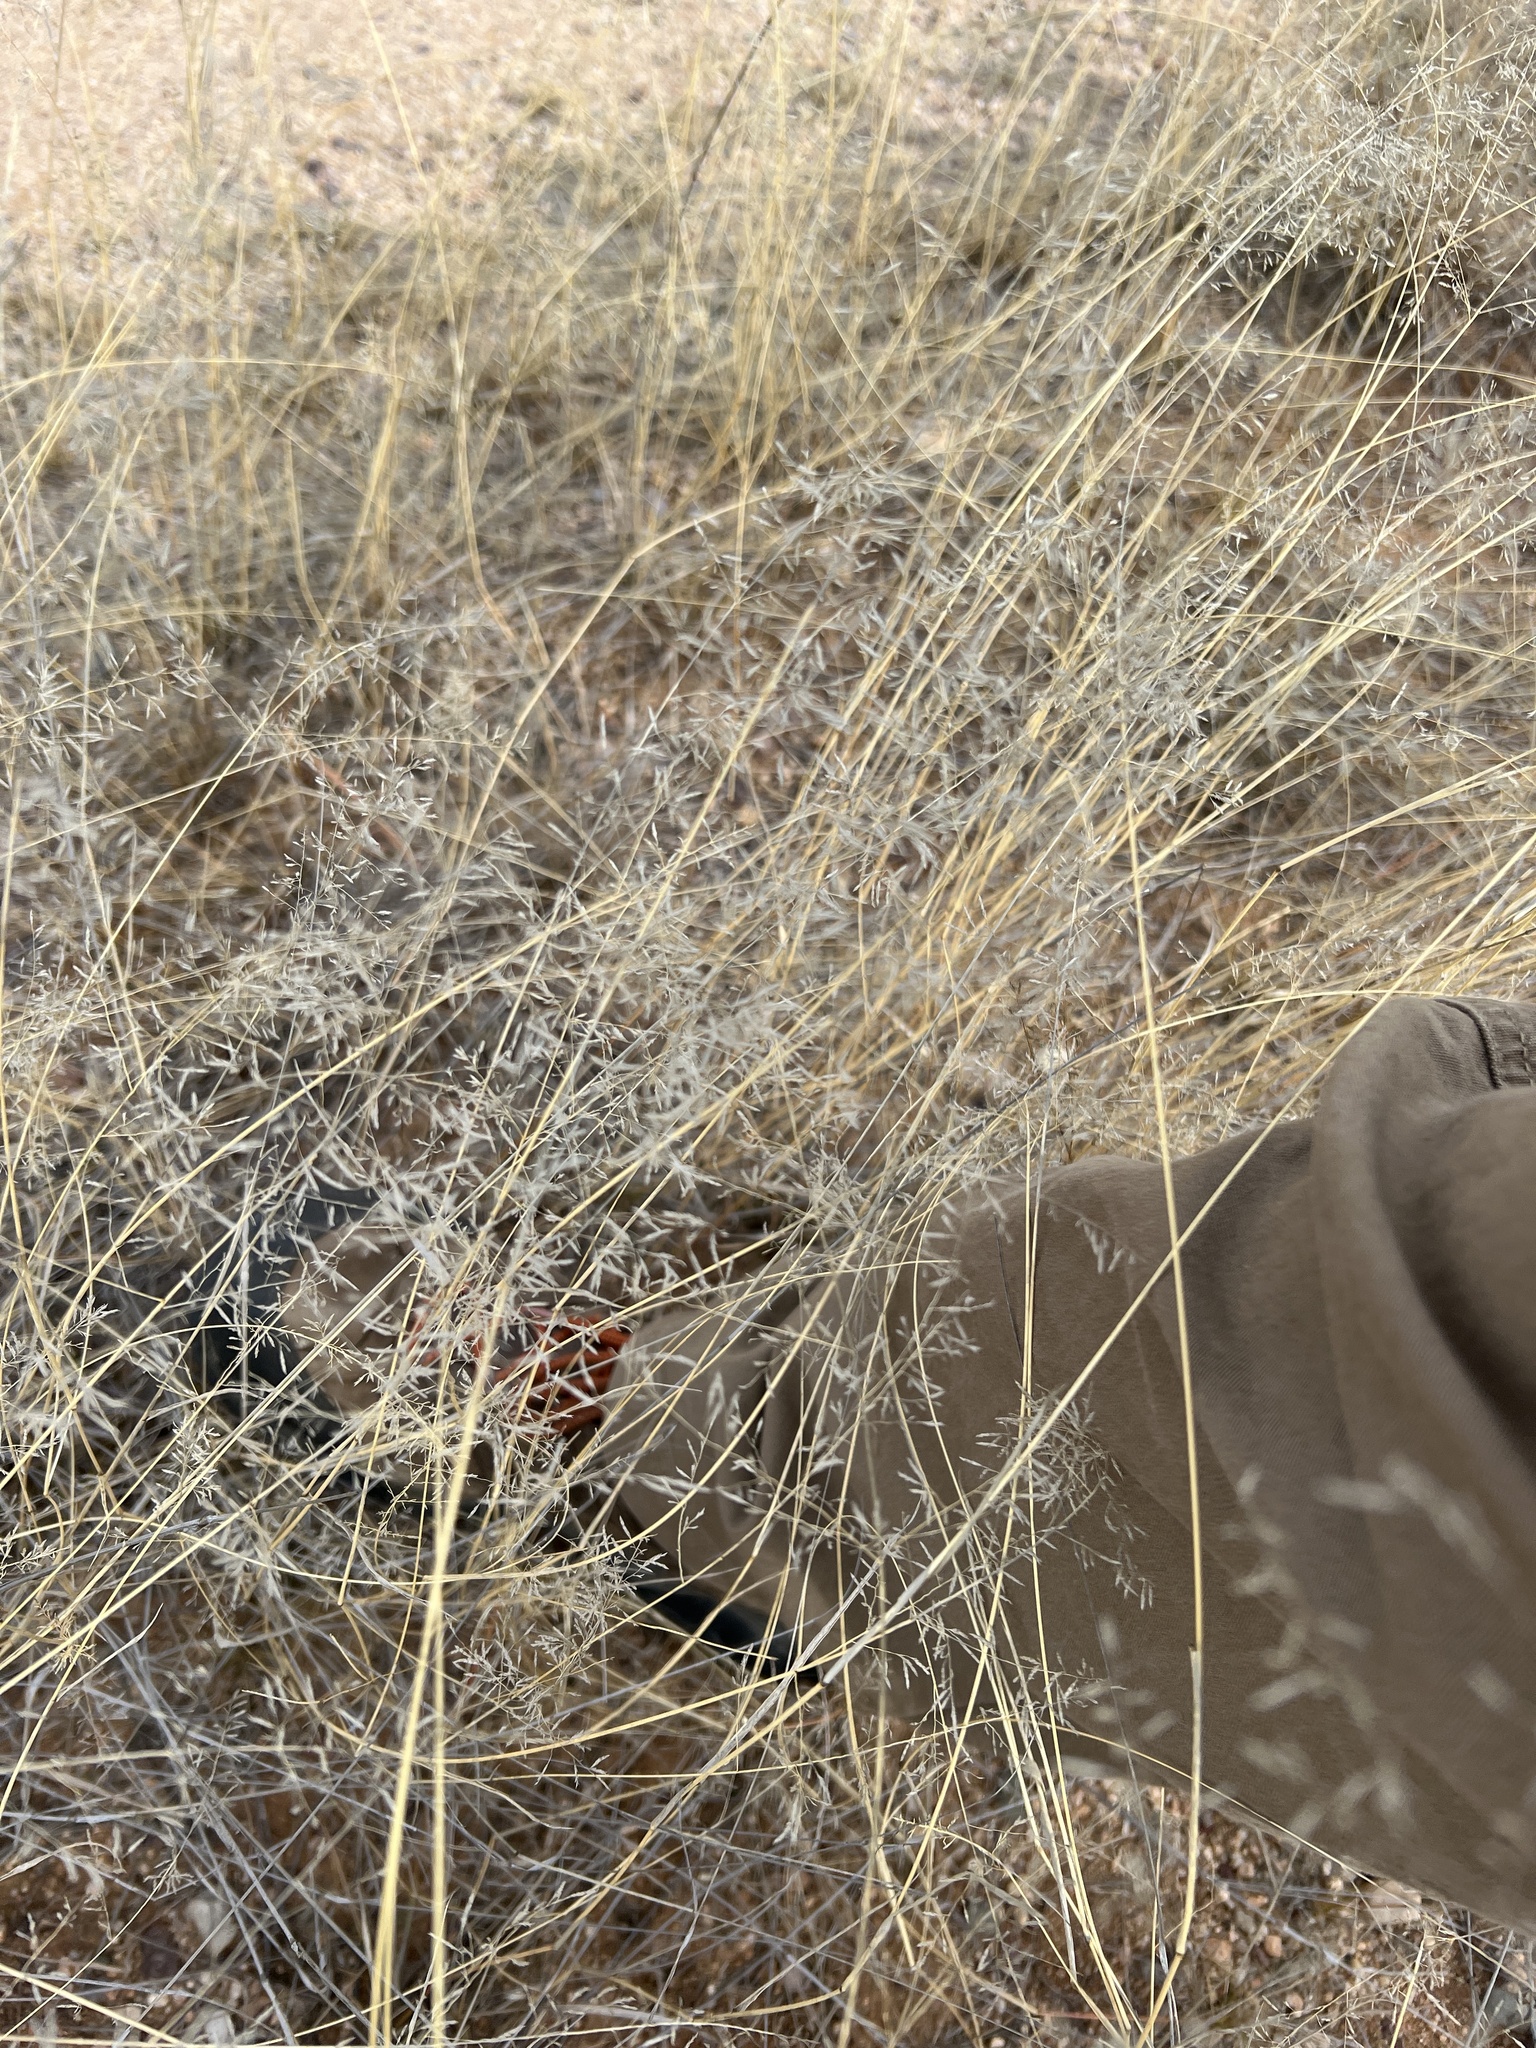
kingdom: Plantae
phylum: Tracheophyta
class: Liliopsida
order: Poales
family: Poaceae
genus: Eragrostis
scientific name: Eragrostis lehmanniana
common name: Lehmann lovegrass
